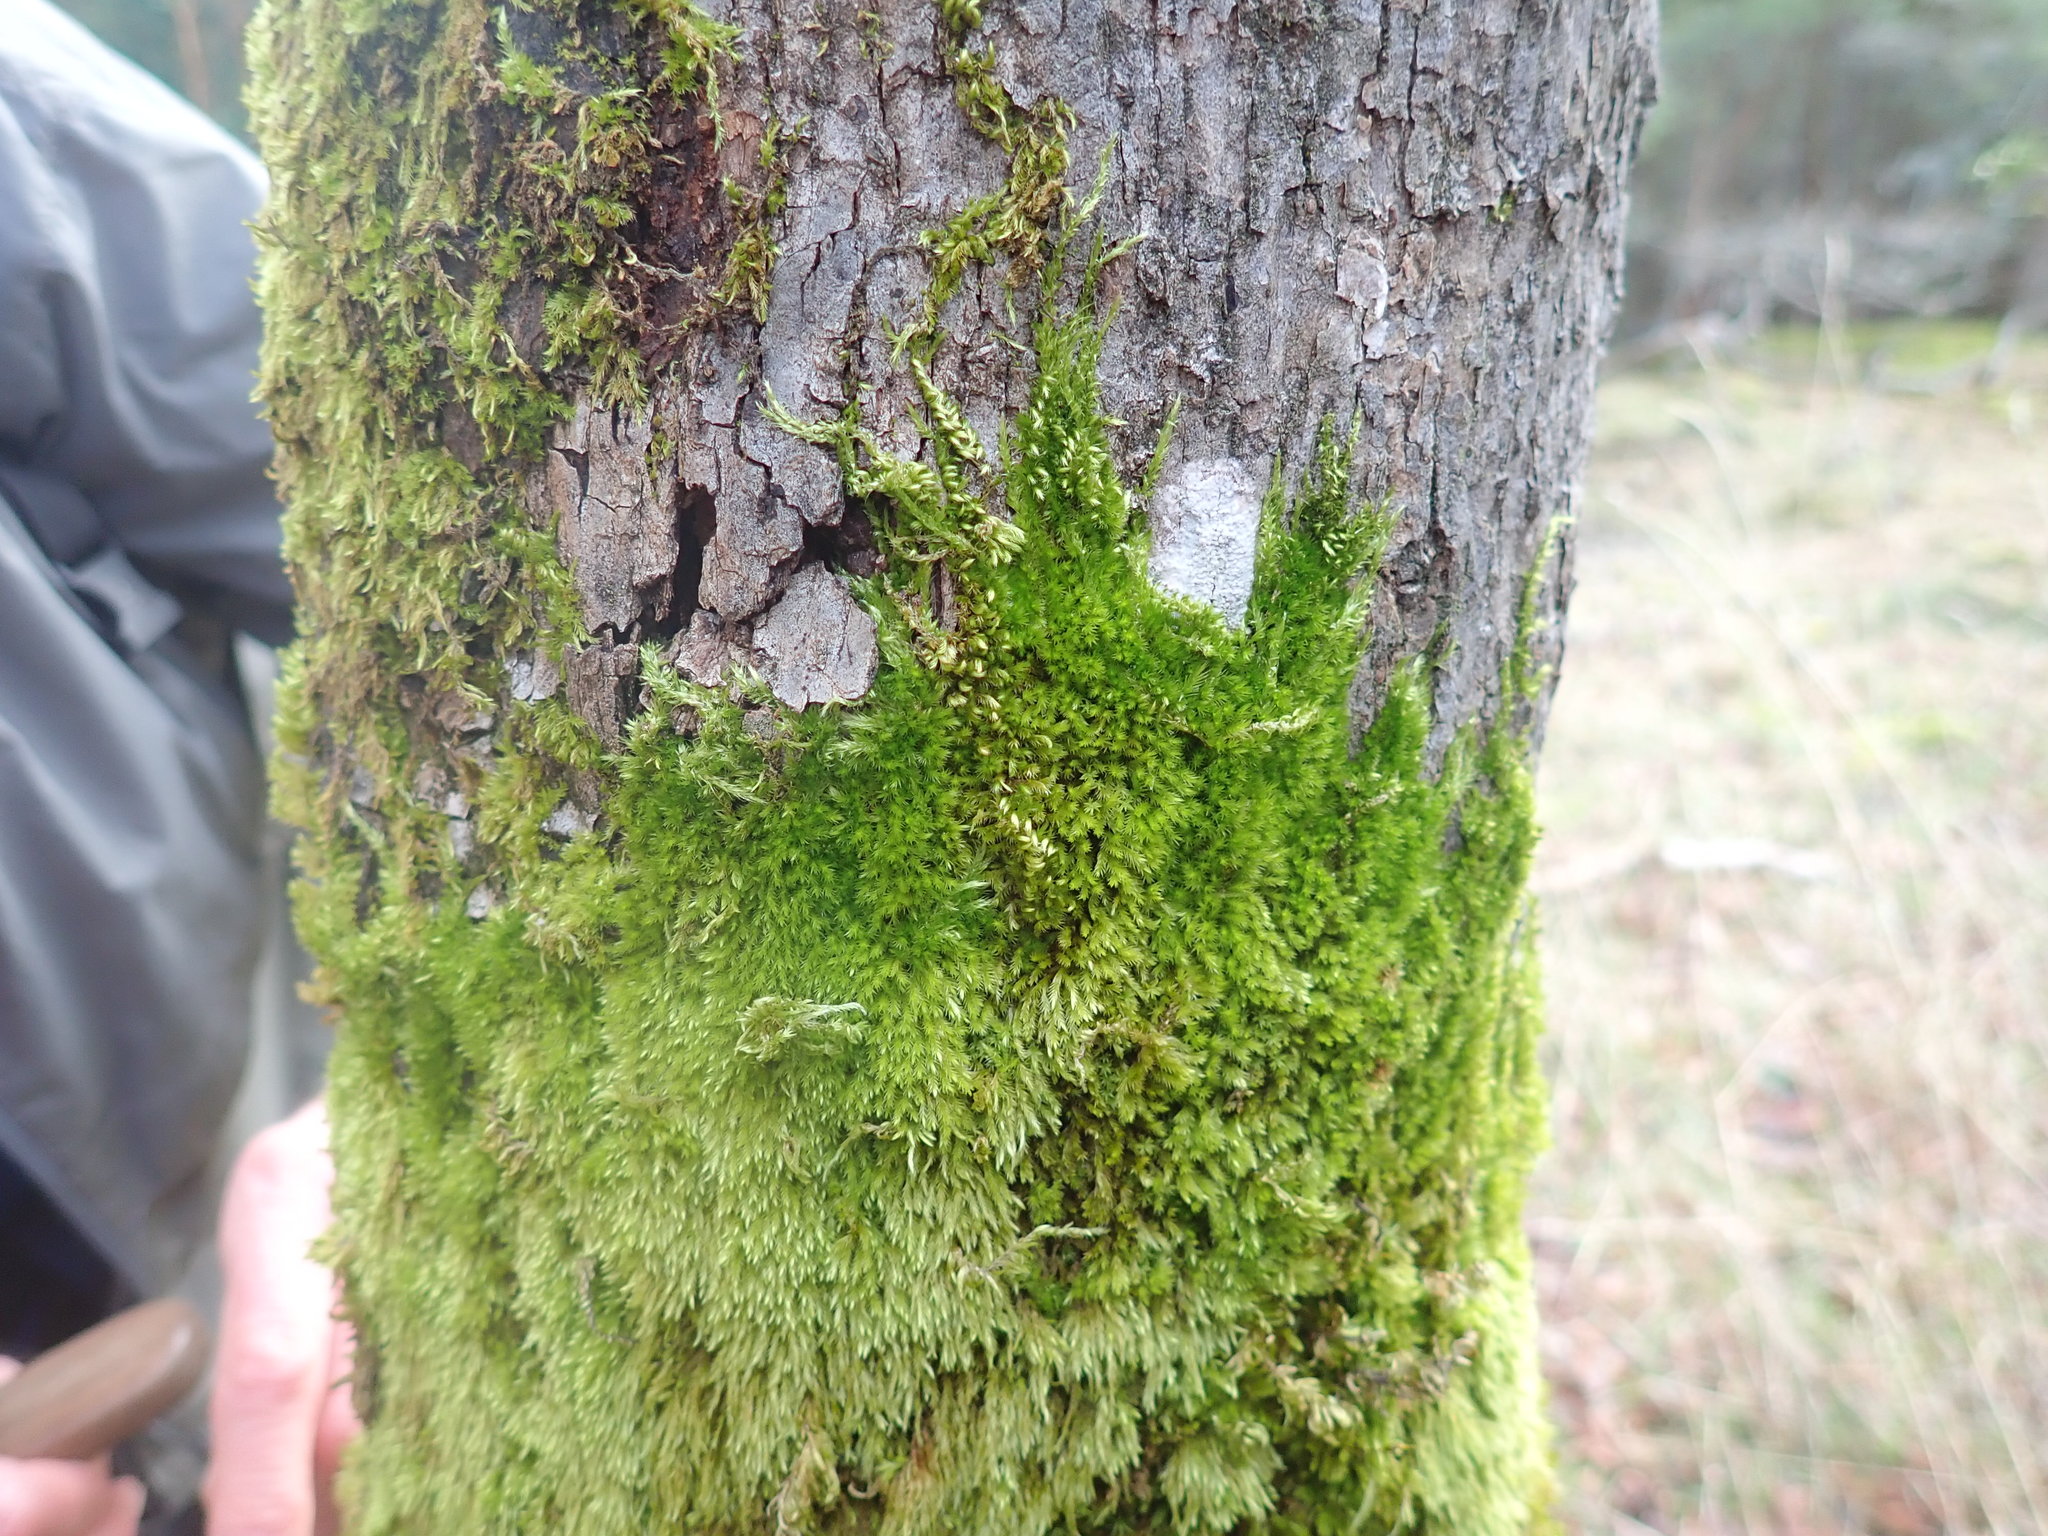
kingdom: Plantae
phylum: Bryophyta
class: Bryopsida
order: Hypnales
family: Brachytheciaceae
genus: Homalothecium
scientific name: Homalothecium nuttallii
